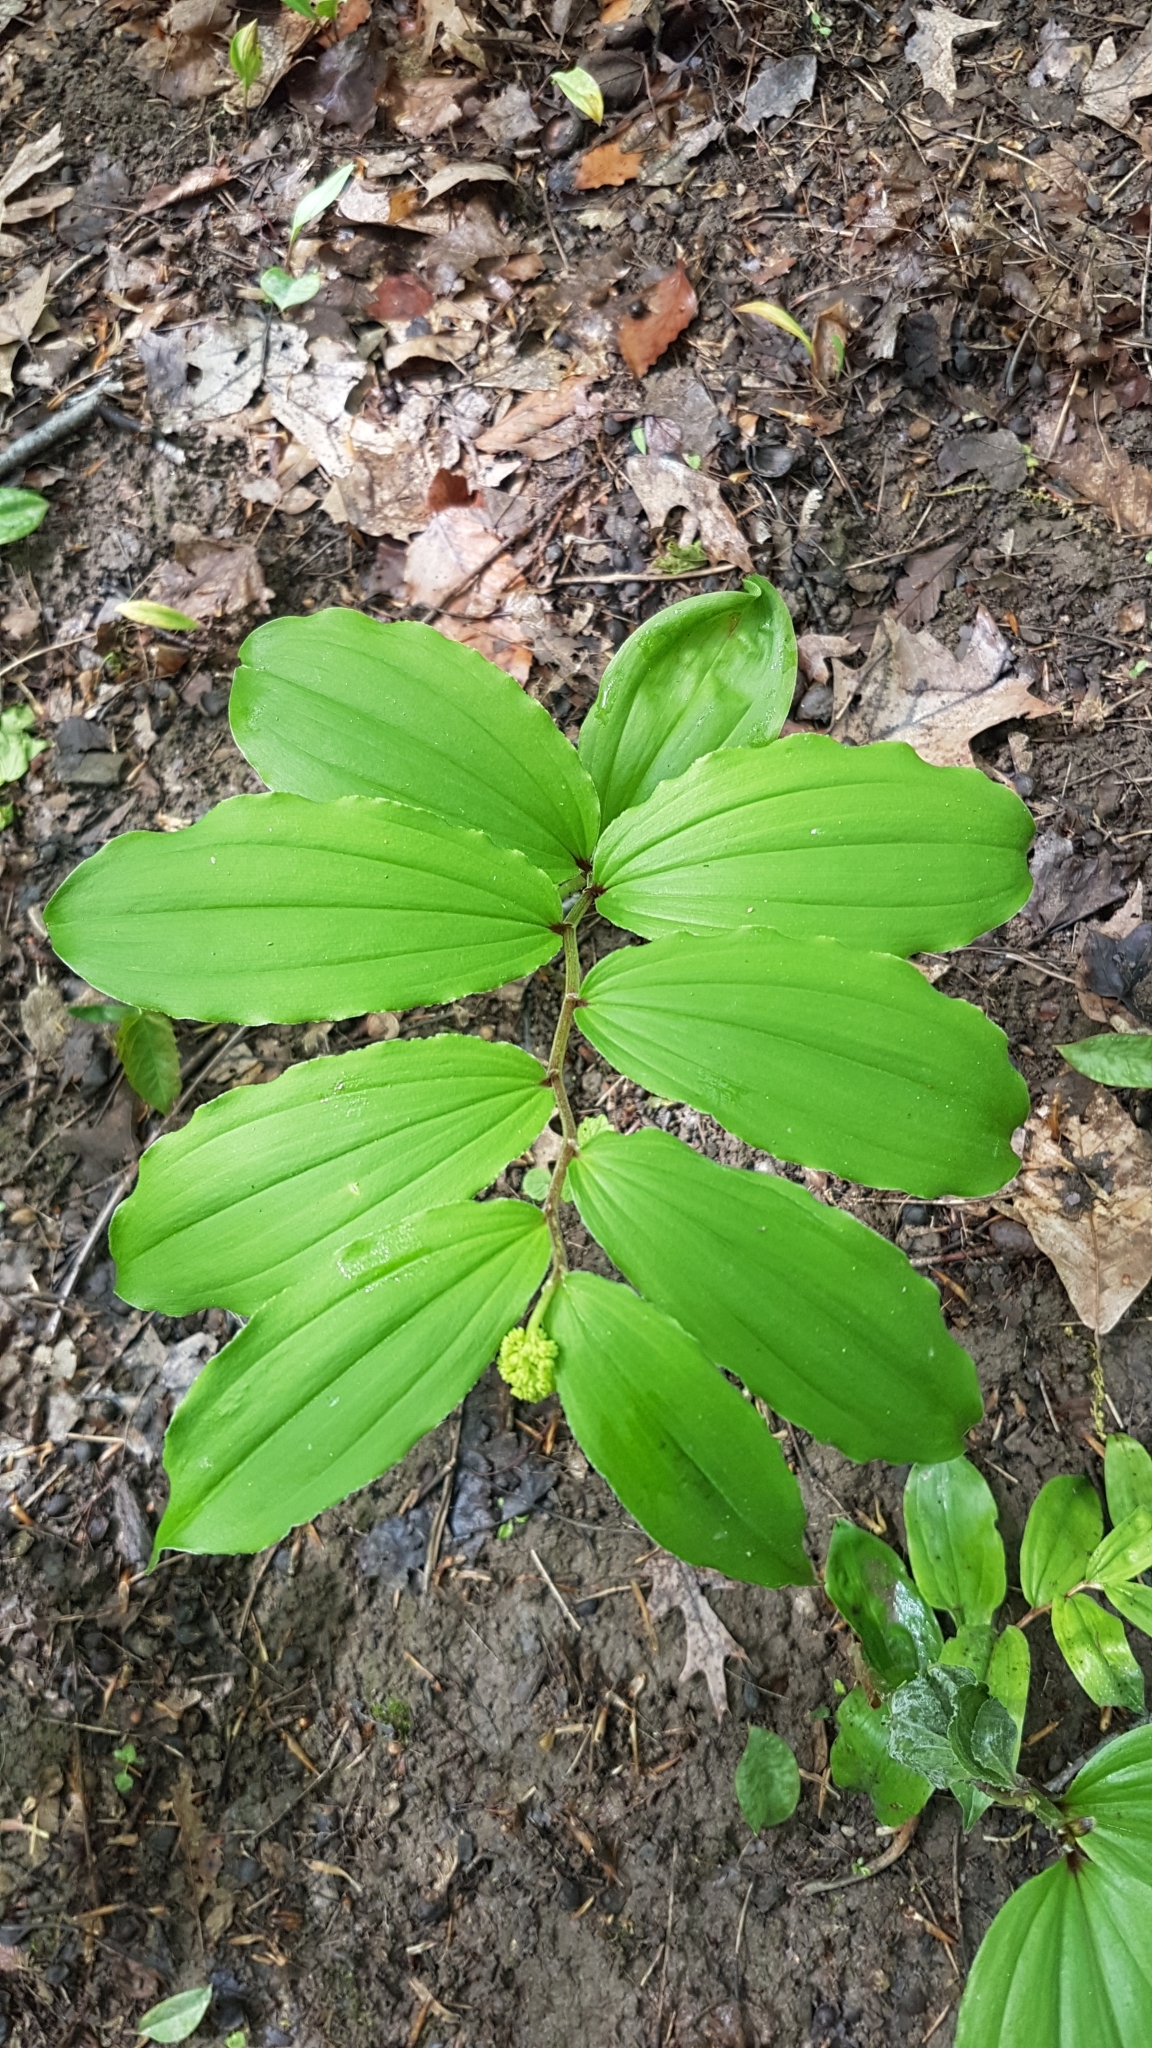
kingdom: Plantae
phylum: Tracheophyta
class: Liliopsida
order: Asparagales
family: Asparagaceae
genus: Maianthemum
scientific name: Maianthemum racemosum
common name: False spikenard
